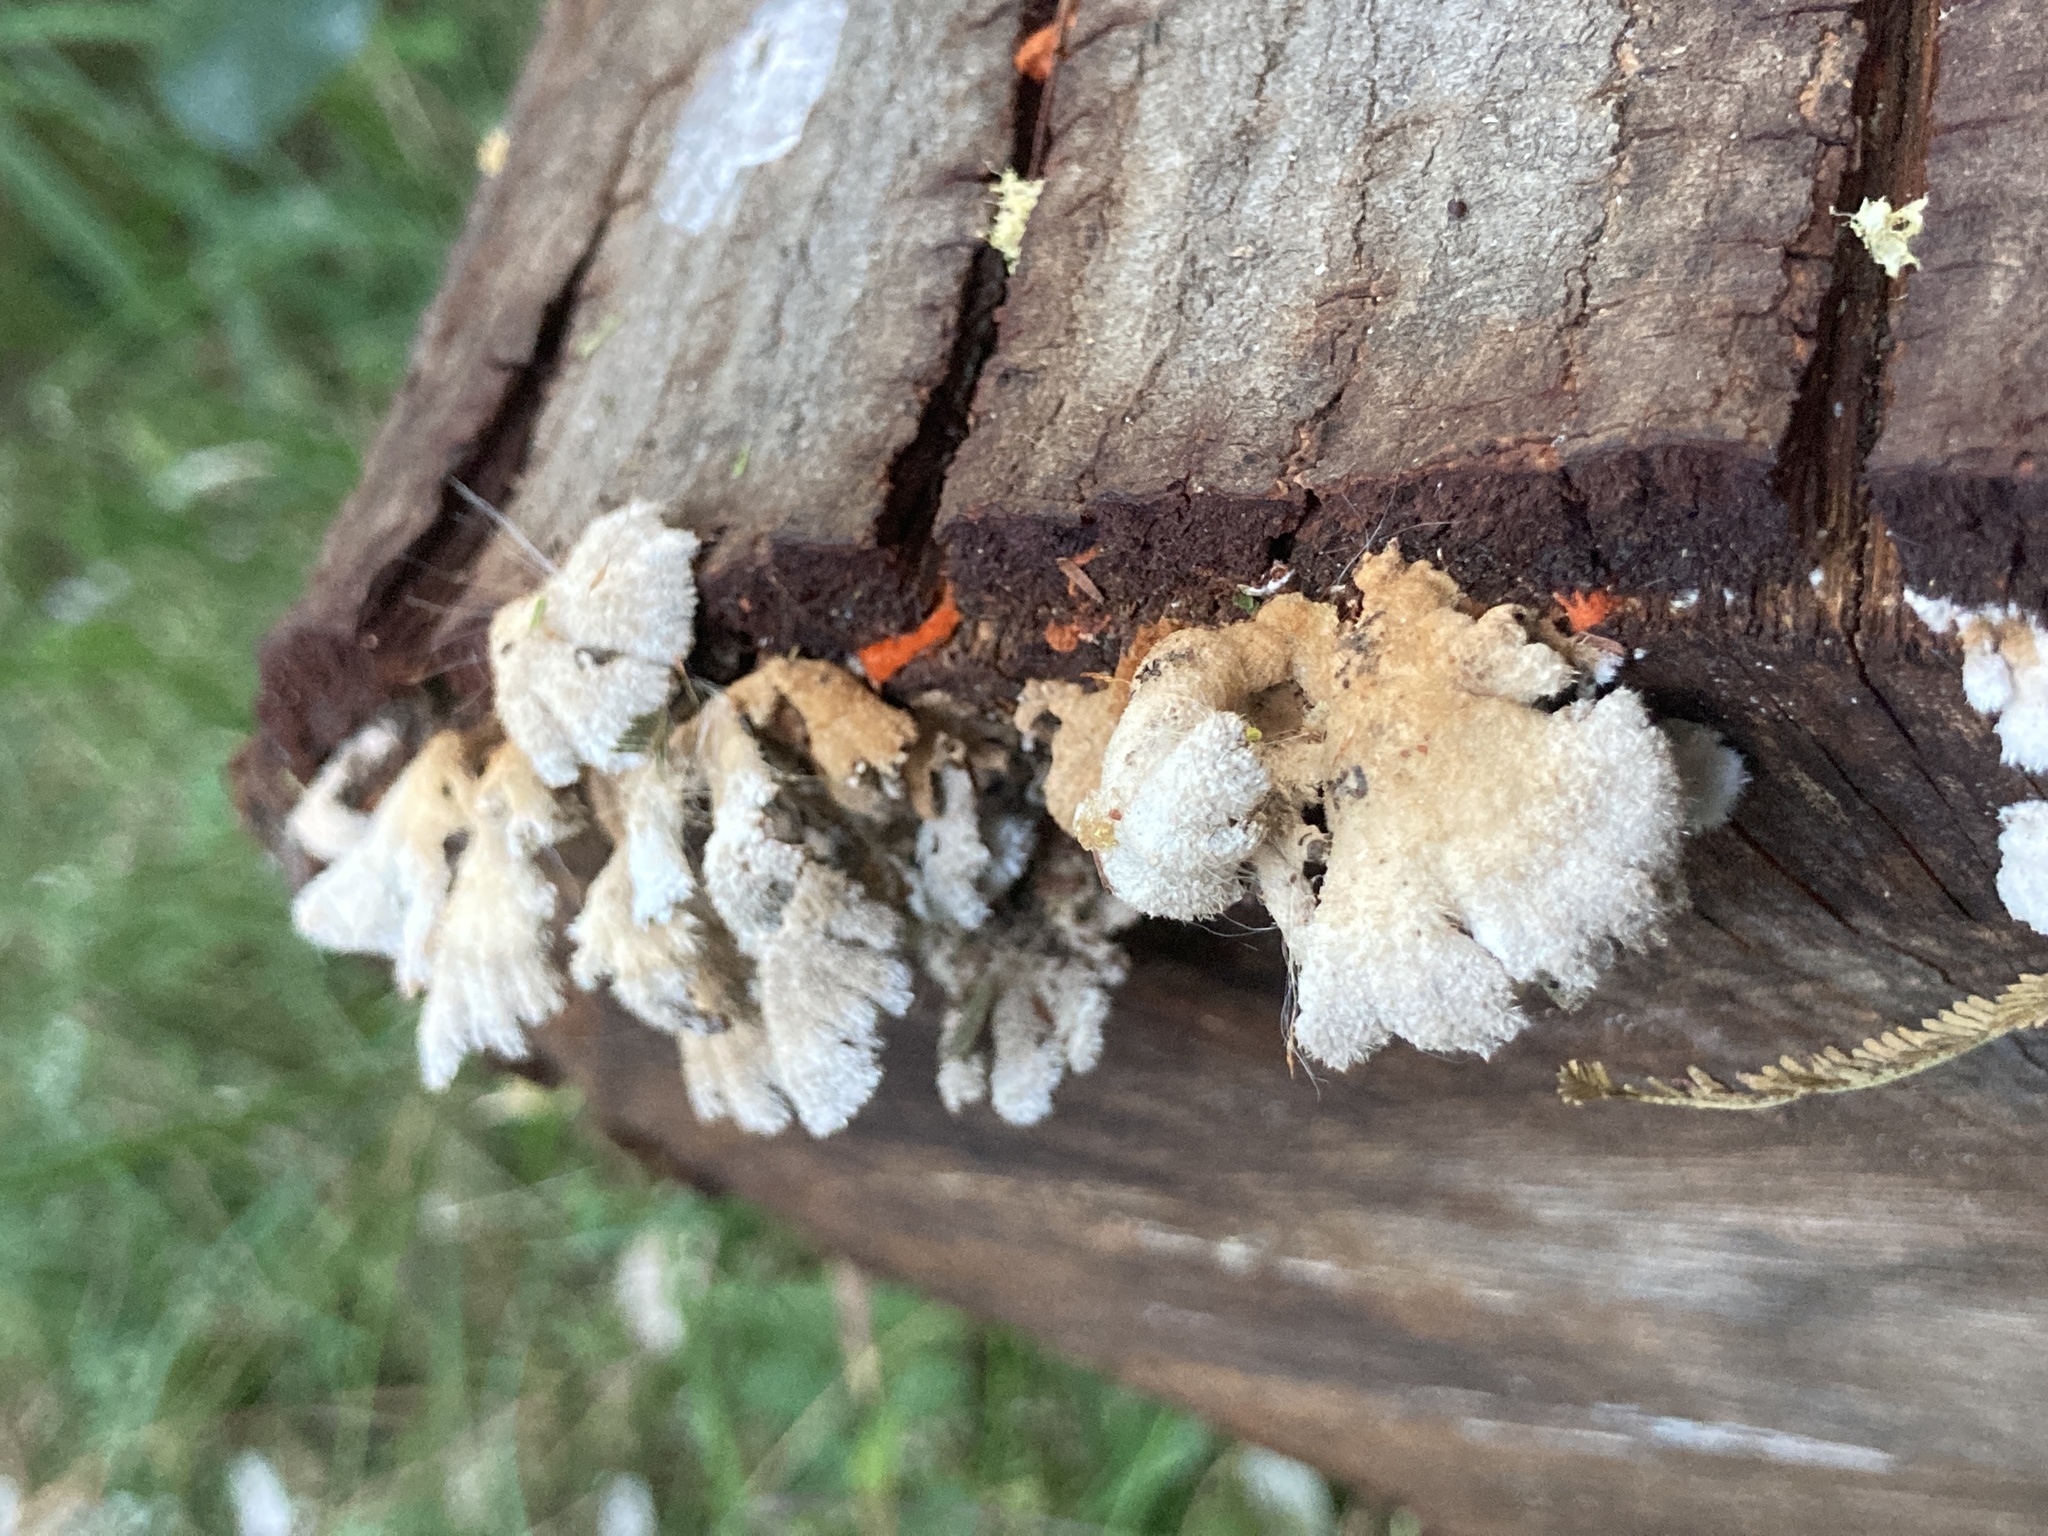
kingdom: Fungi
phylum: Basidiomycota
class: Agaricomycetes
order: Agaricales
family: Schizophyllaceae
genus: Schizophyllum
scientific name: Schizophyllum commune
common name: Common porecrust
